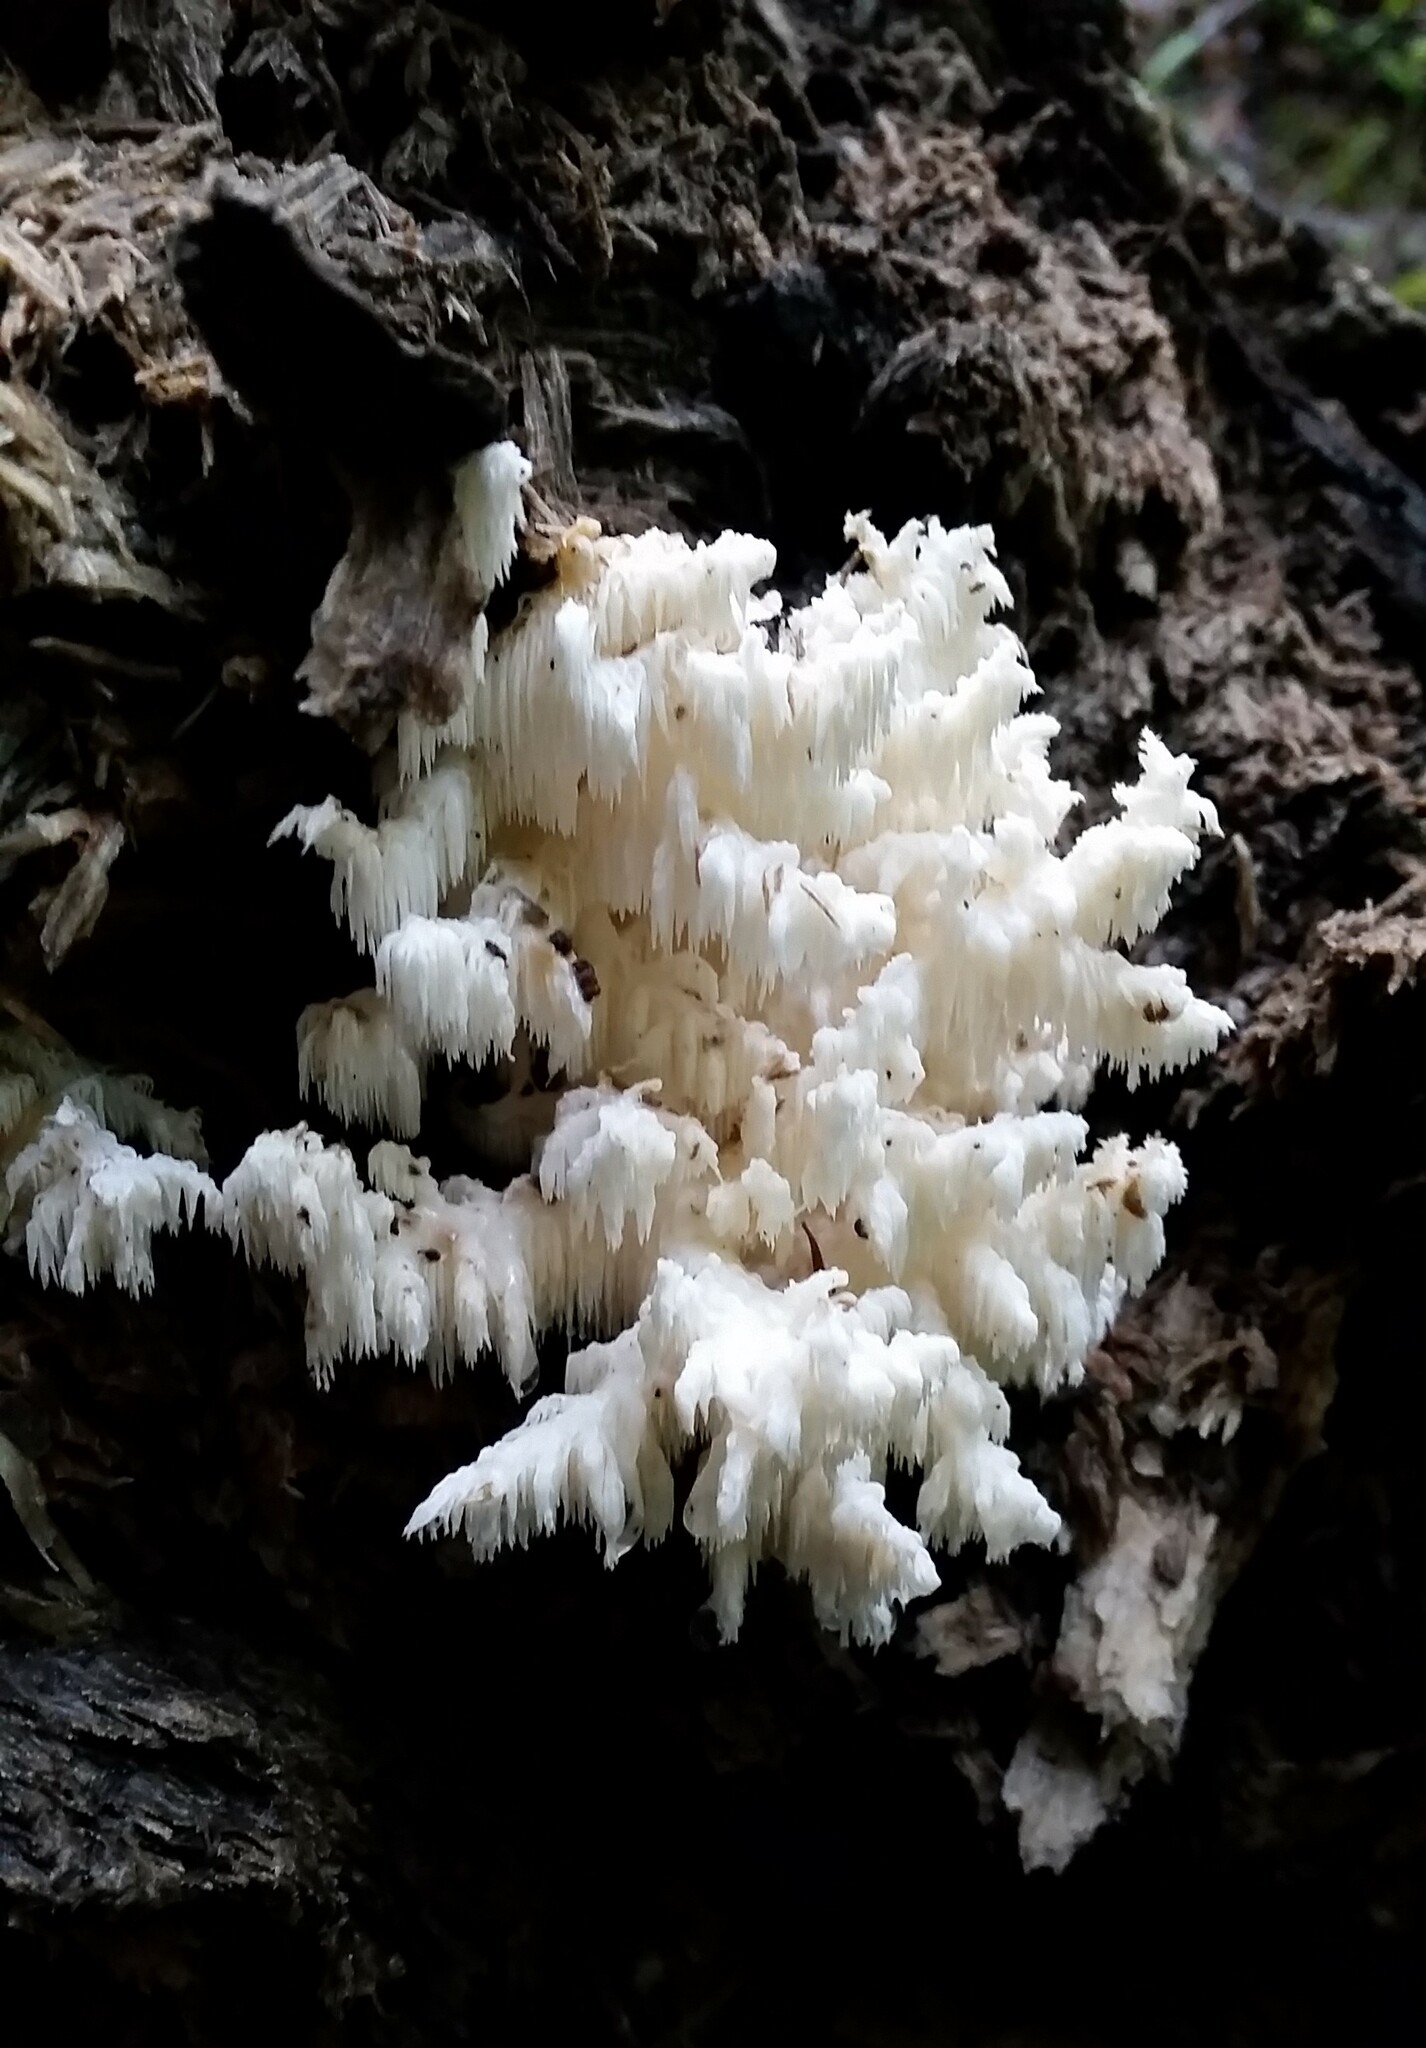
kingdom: Fungi
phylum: Basidiomycota
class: Agaricomycetes
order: Russulales
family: Hericiaceae
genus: Hericium
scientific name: Hericium coralloides
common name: Coral tooth
